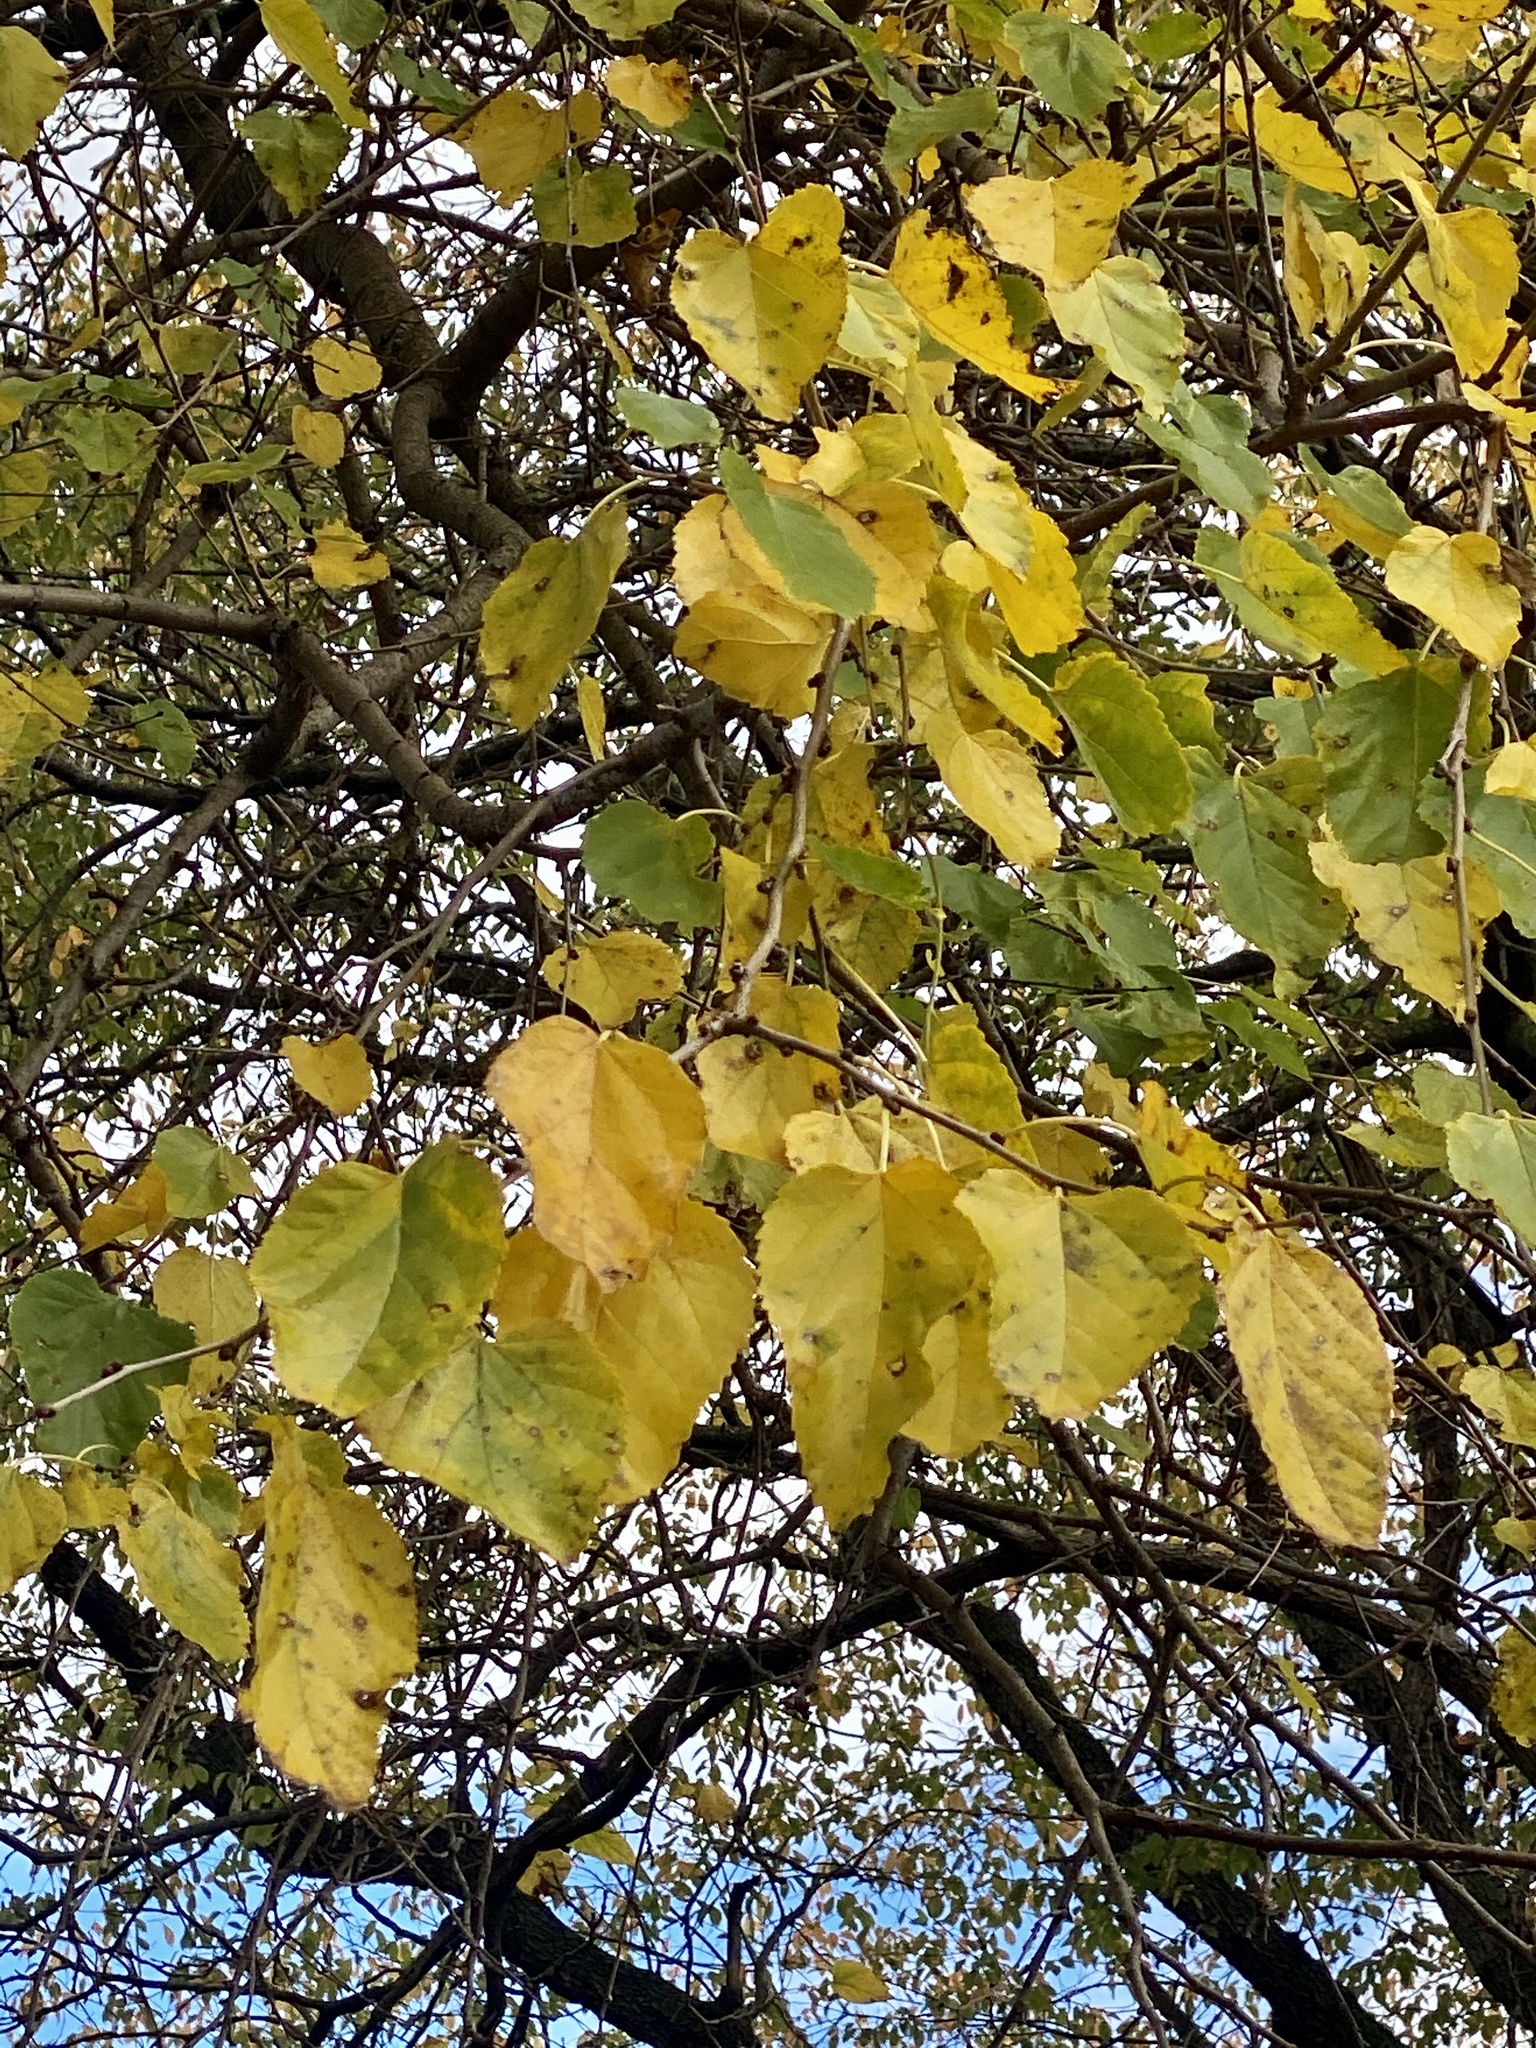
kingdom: Plantae
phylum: Tracheophyta
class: Magnoliopsida
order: Rosales
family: Moraceae
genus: Morus
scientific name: Morus alba
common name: White mulberry
